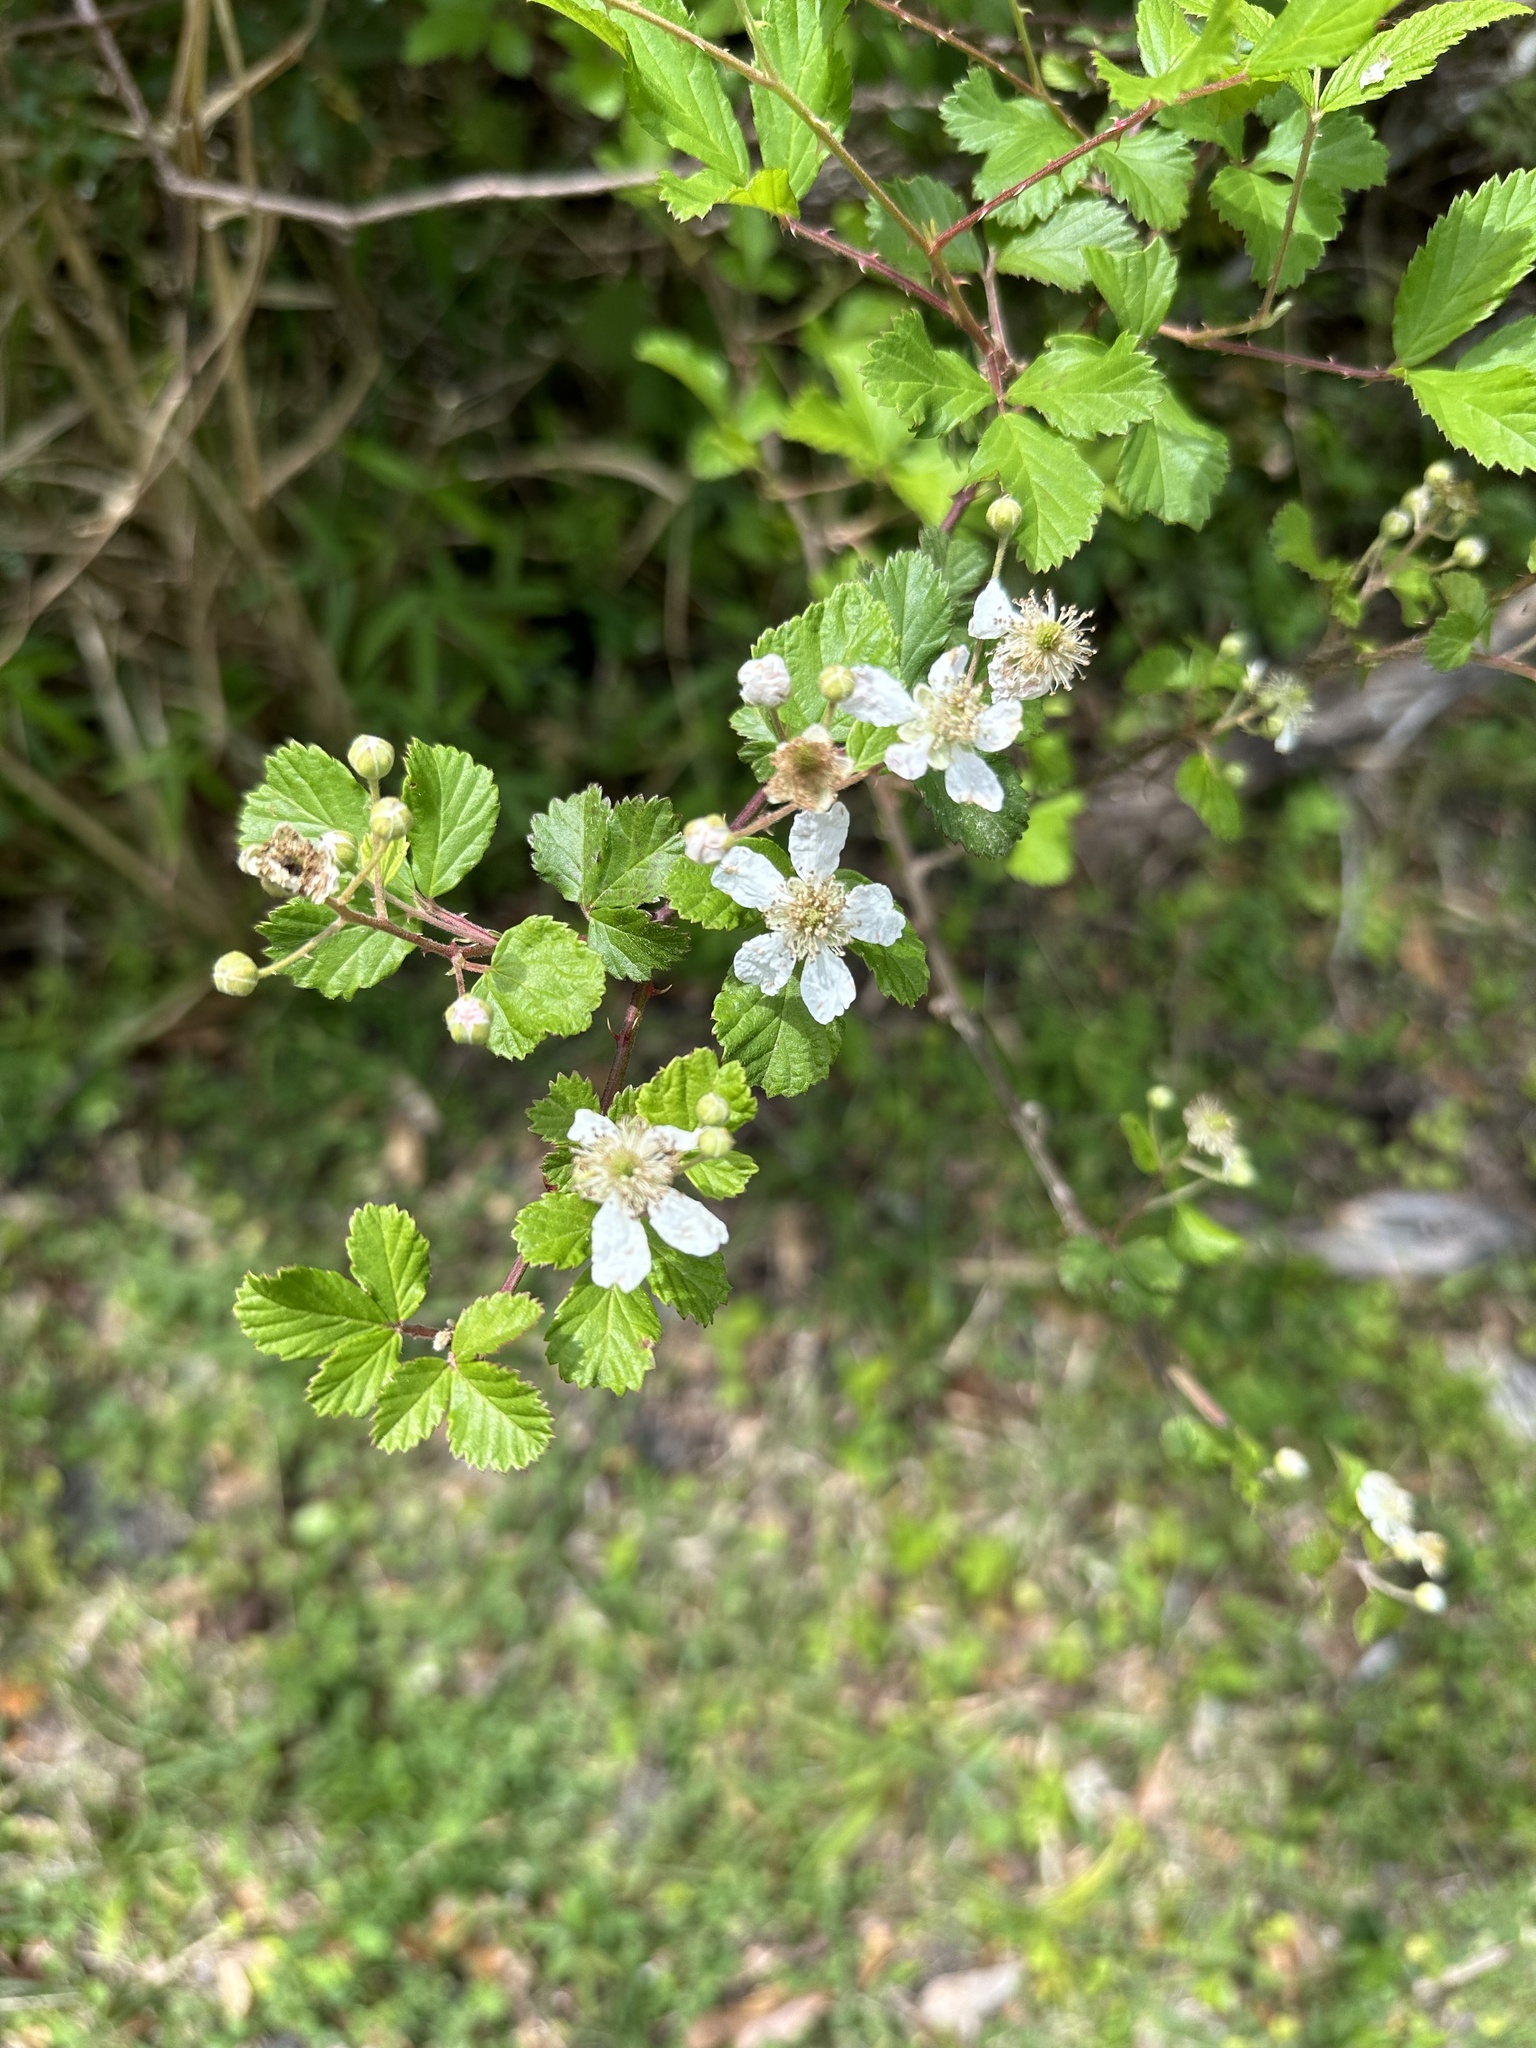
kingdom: Plantae
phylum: Tracheophyta
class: Magnoliopsida
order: Rosales
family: Rosaceae
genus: Rubus
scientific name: Rubus cuneifolius
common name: American bramble
